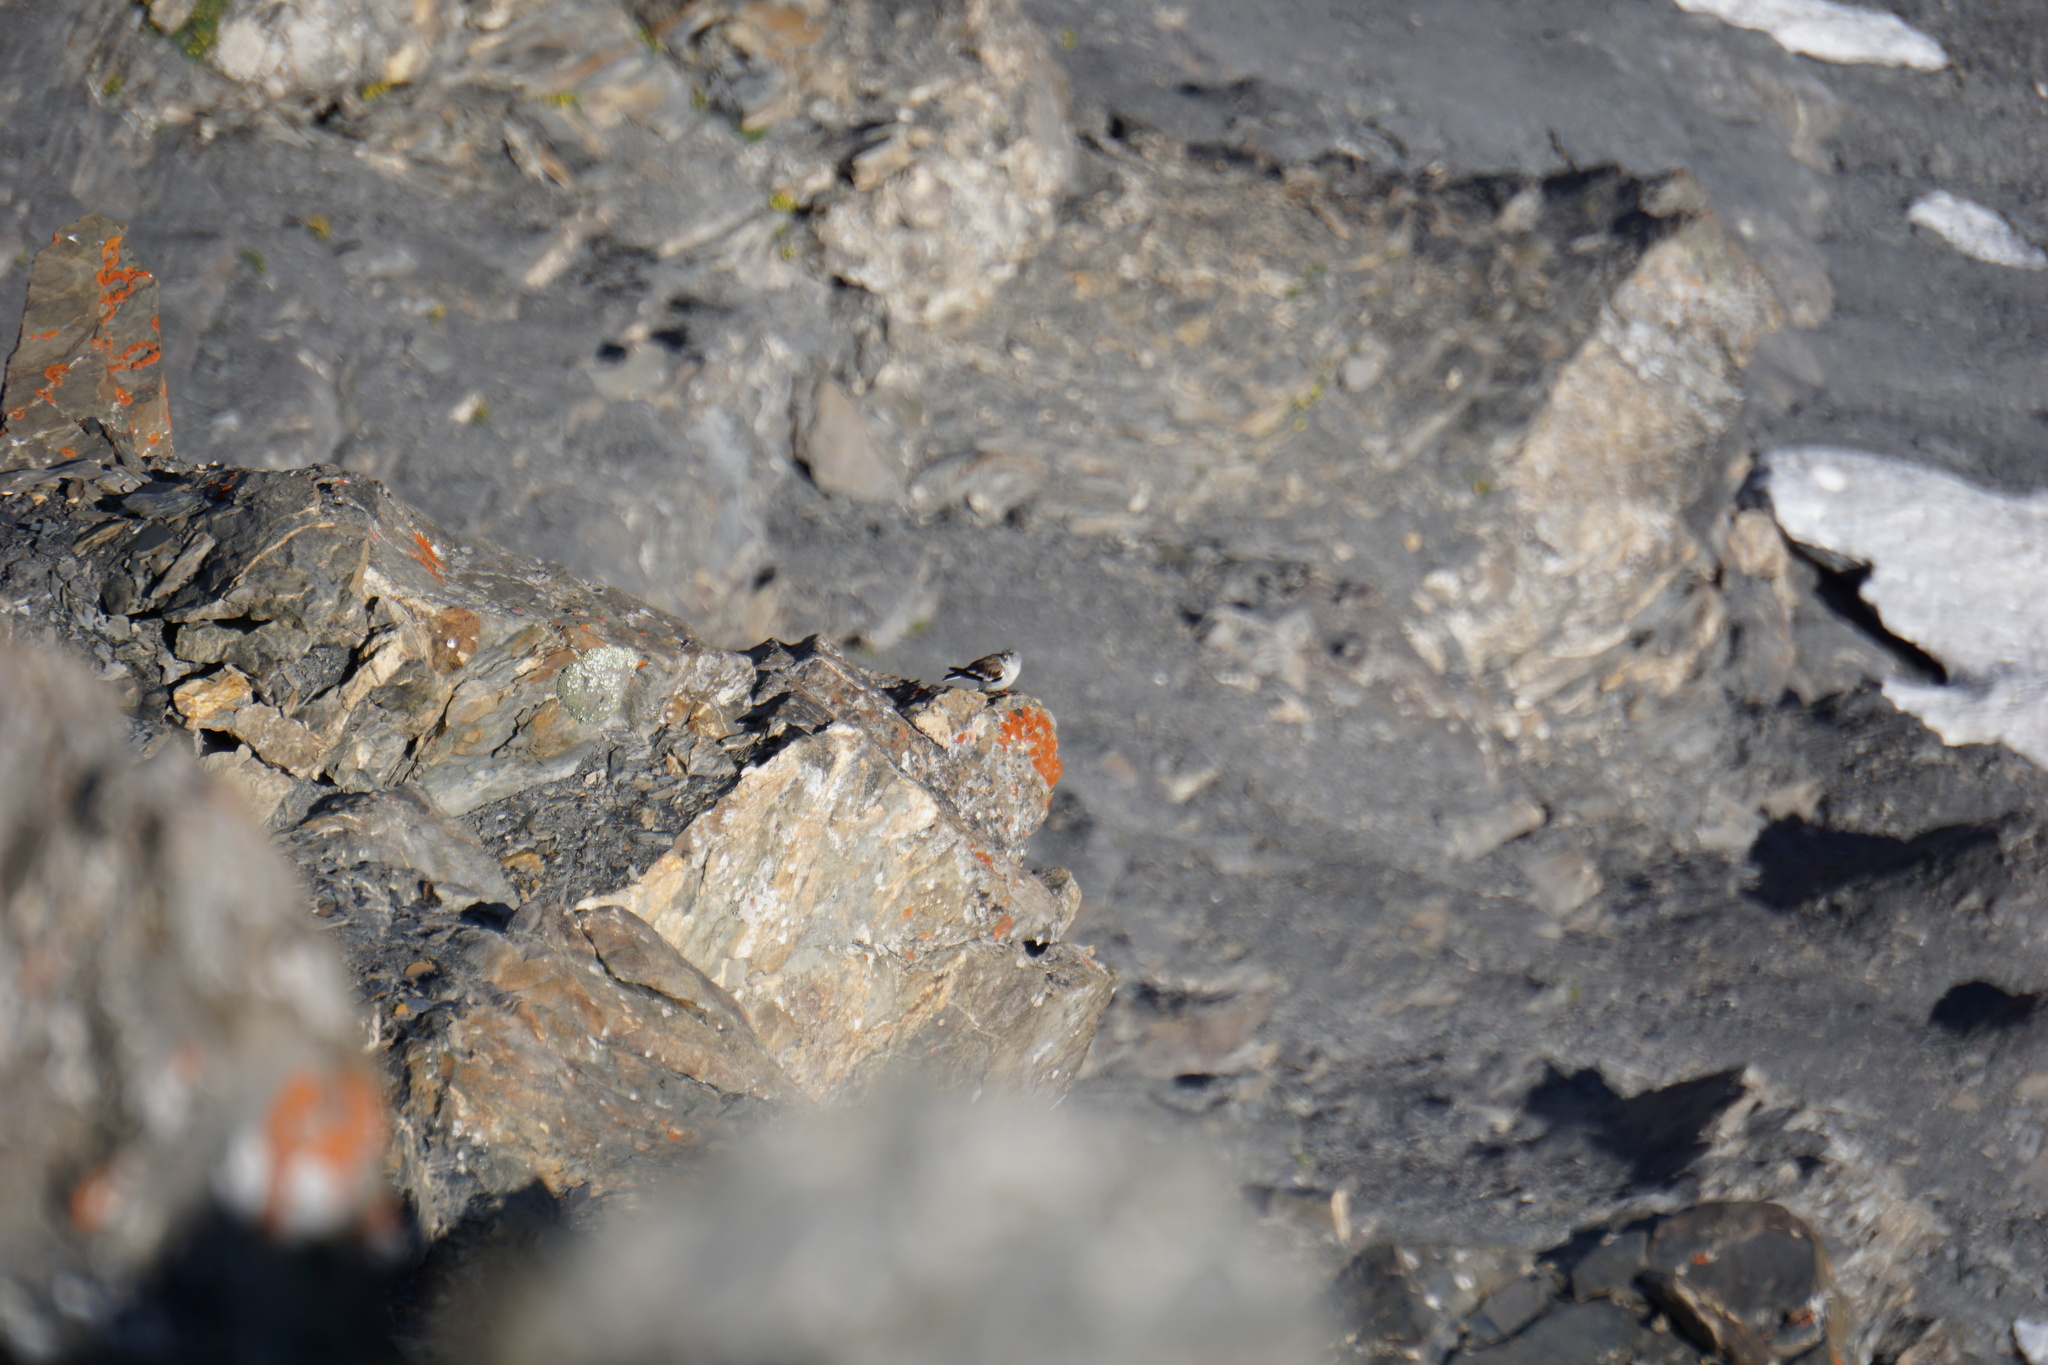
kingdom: Animalia
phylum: Chordata
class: Aves
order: Passeriformes
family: Passeridae
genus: Montifringilla
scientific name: Montifringilla nivalis
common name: White-winged snowfinch
